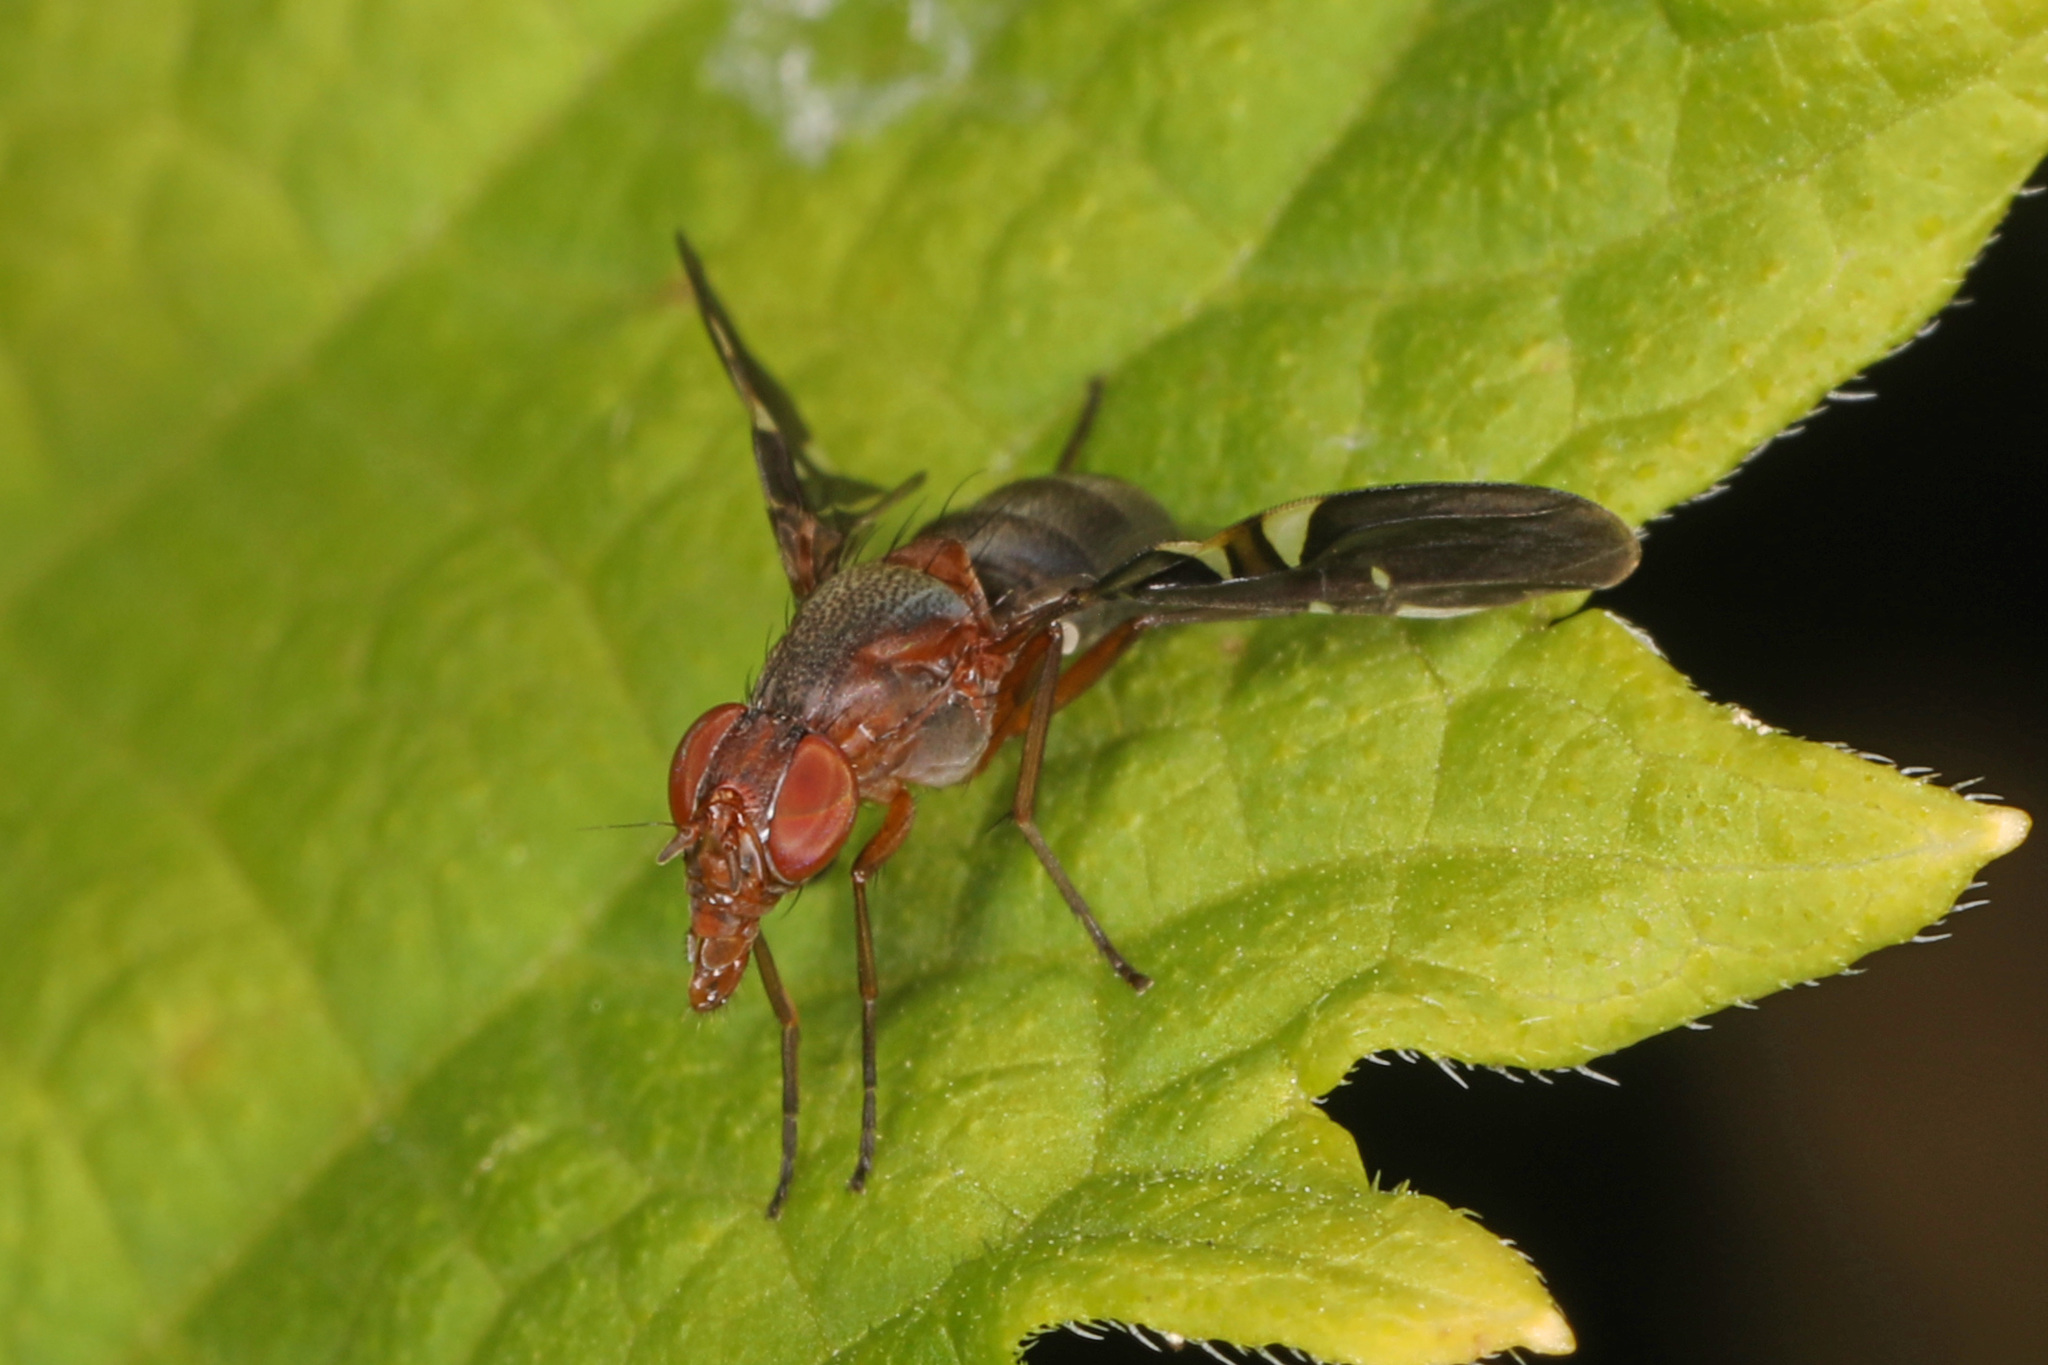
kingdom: Animalia
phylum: Arthropoda
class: Insecta
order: Diptera
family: Ulidiidae
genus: Delphinia
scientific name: Delphinia picta
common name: Common picture-winged fly
